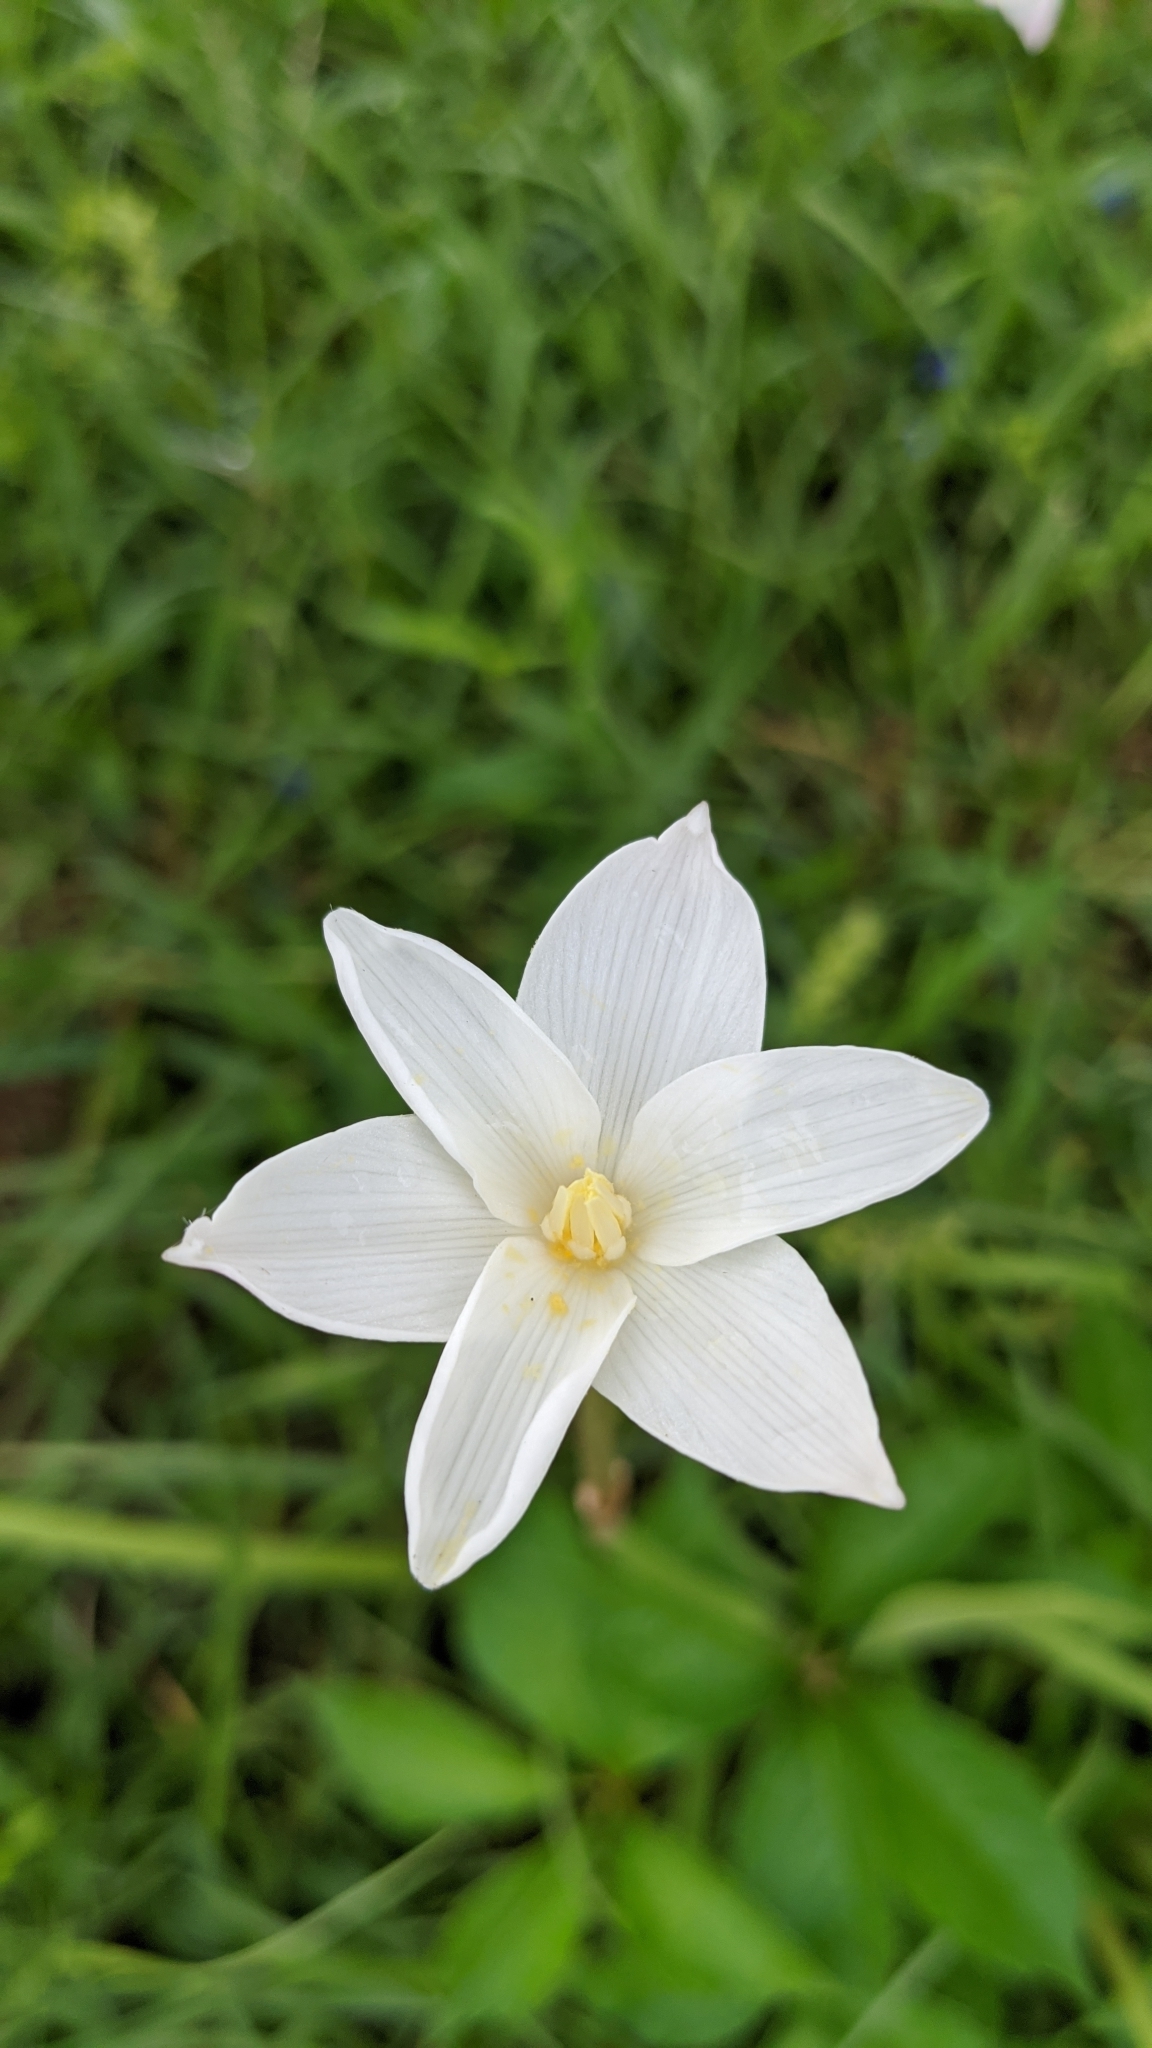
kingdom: Plantae
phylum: Tracheophyta
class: Liliopsida
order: Asparagales
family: Amaryllidaceae
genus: Zephyranthes
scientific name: Zephyranthes chlorosolen
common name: Evening rain-lily
